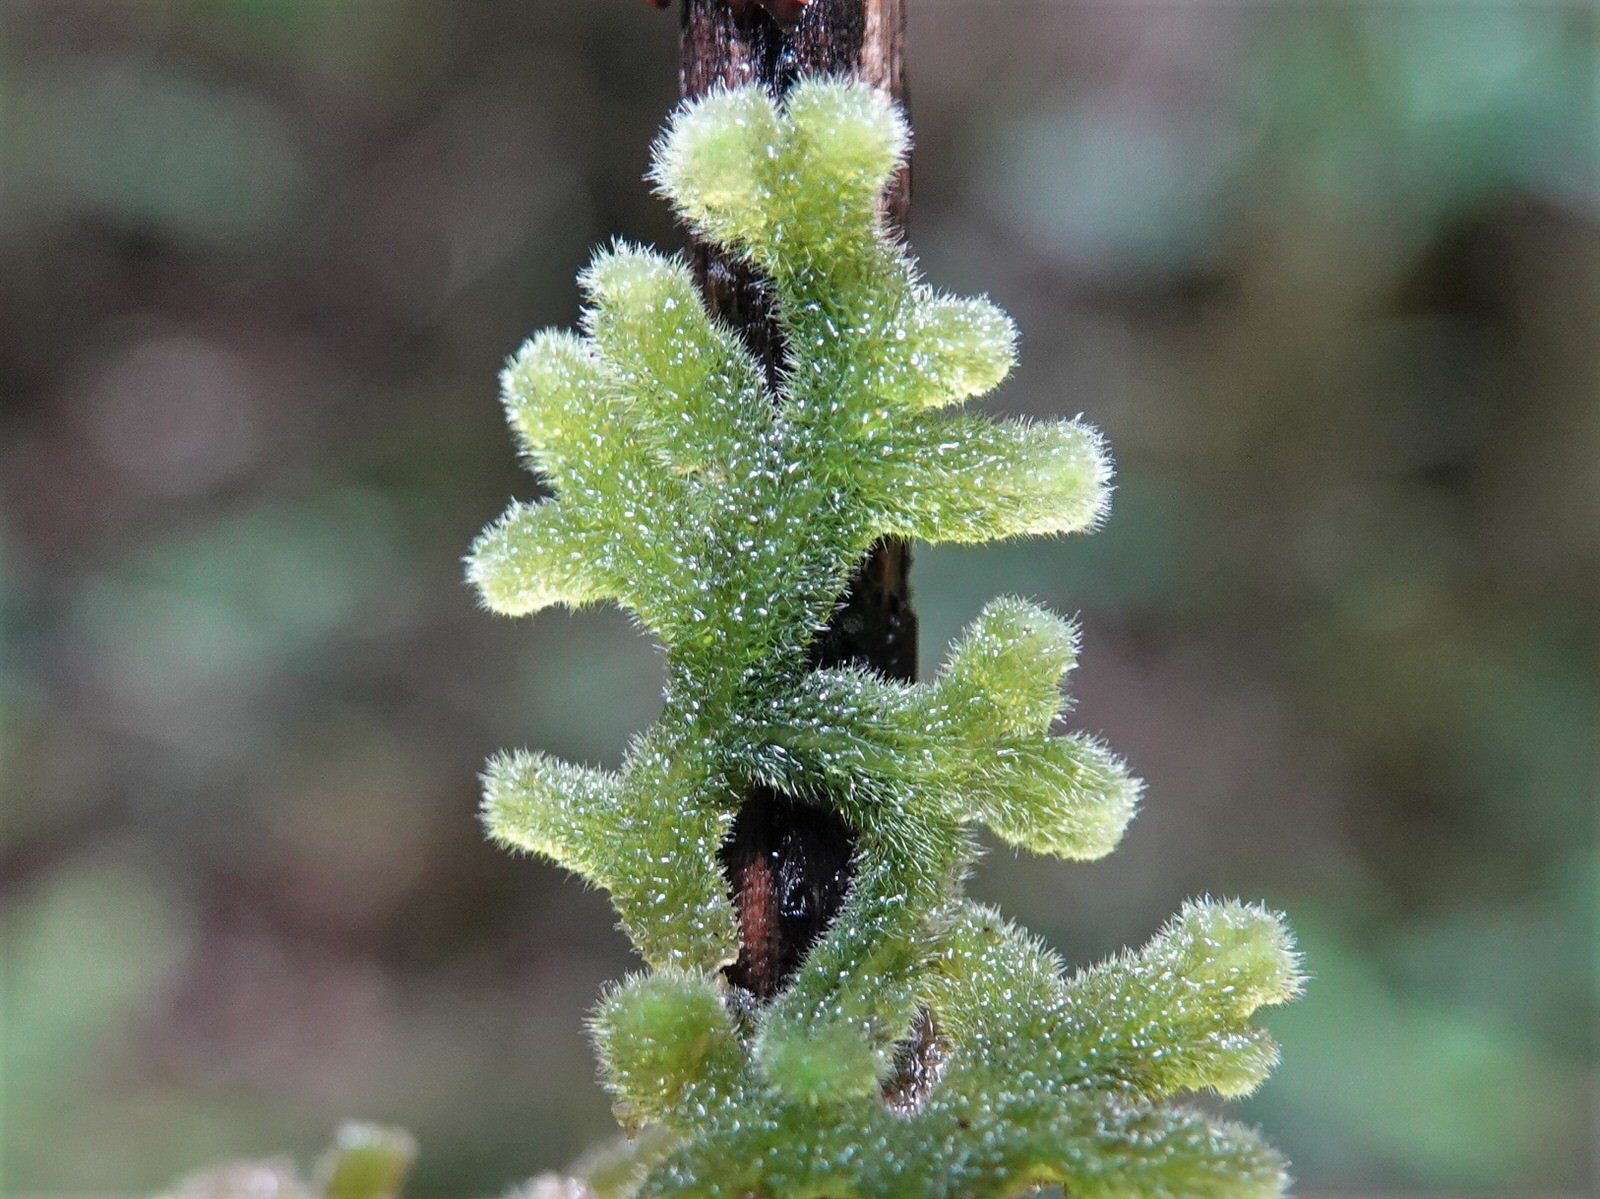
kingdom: Plantae
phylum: Marchantiophyta
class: Jungermanniopsida
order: Jungermanniales
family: Trichocoleaceae
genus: Leiomitra
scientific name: Leiomitra lanata
